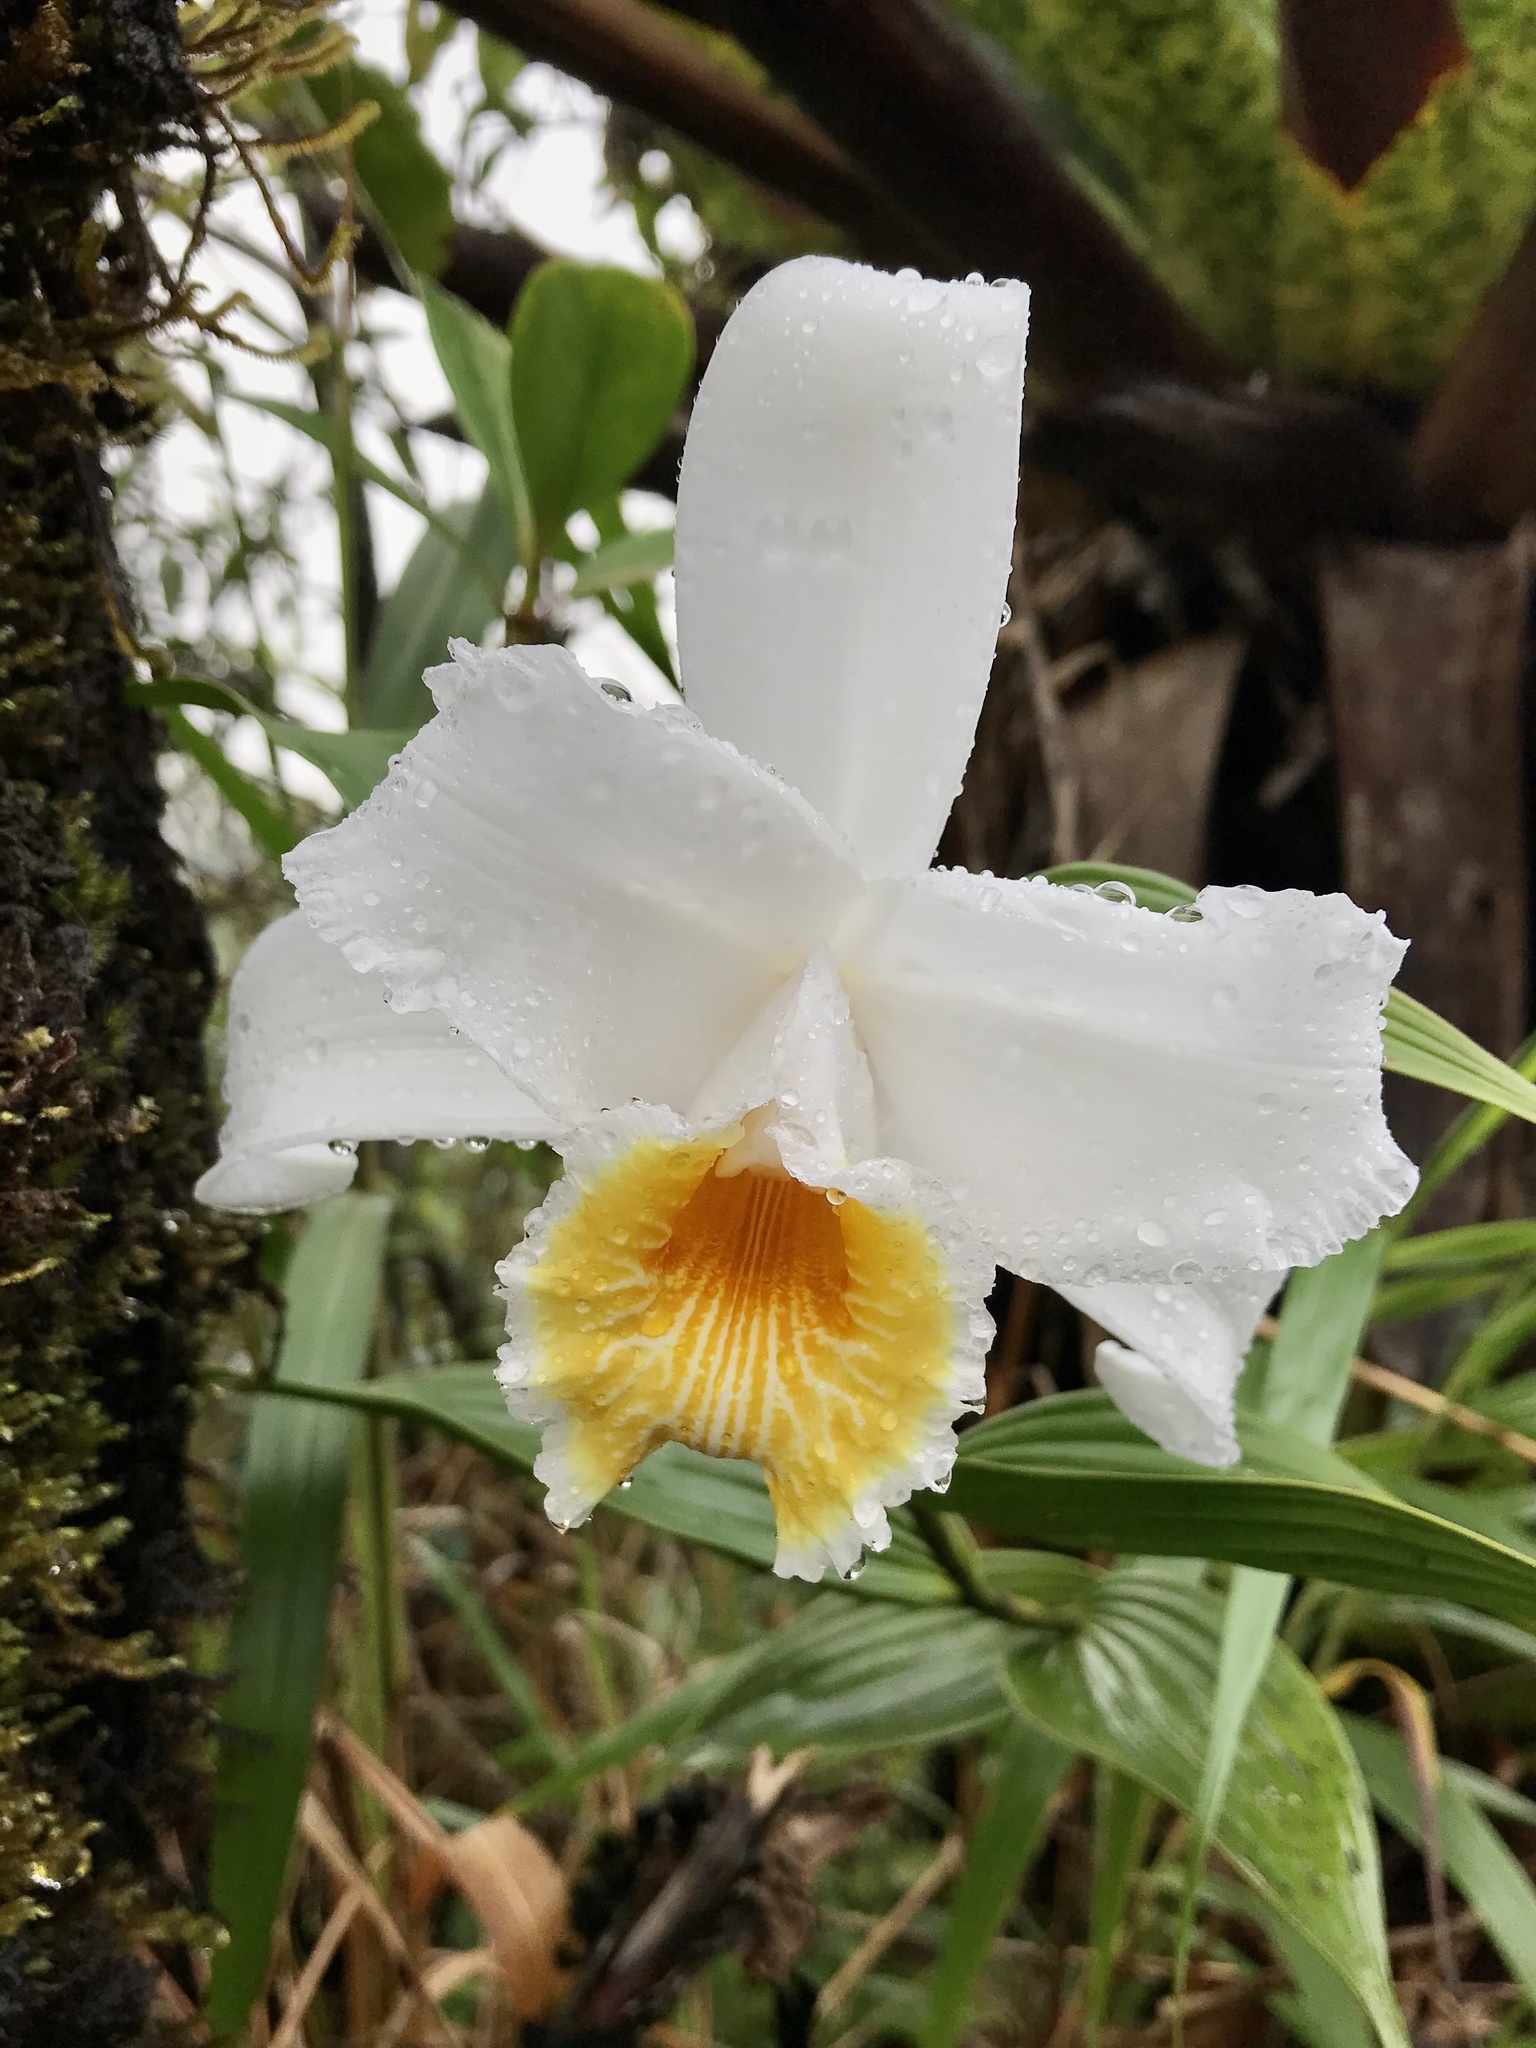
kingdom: Plantae
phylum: Tracheophyta
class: Liliopsida
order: Asparagales
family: Orchidaceae
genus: Sobralia
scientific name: Sobralia chrysostoma
